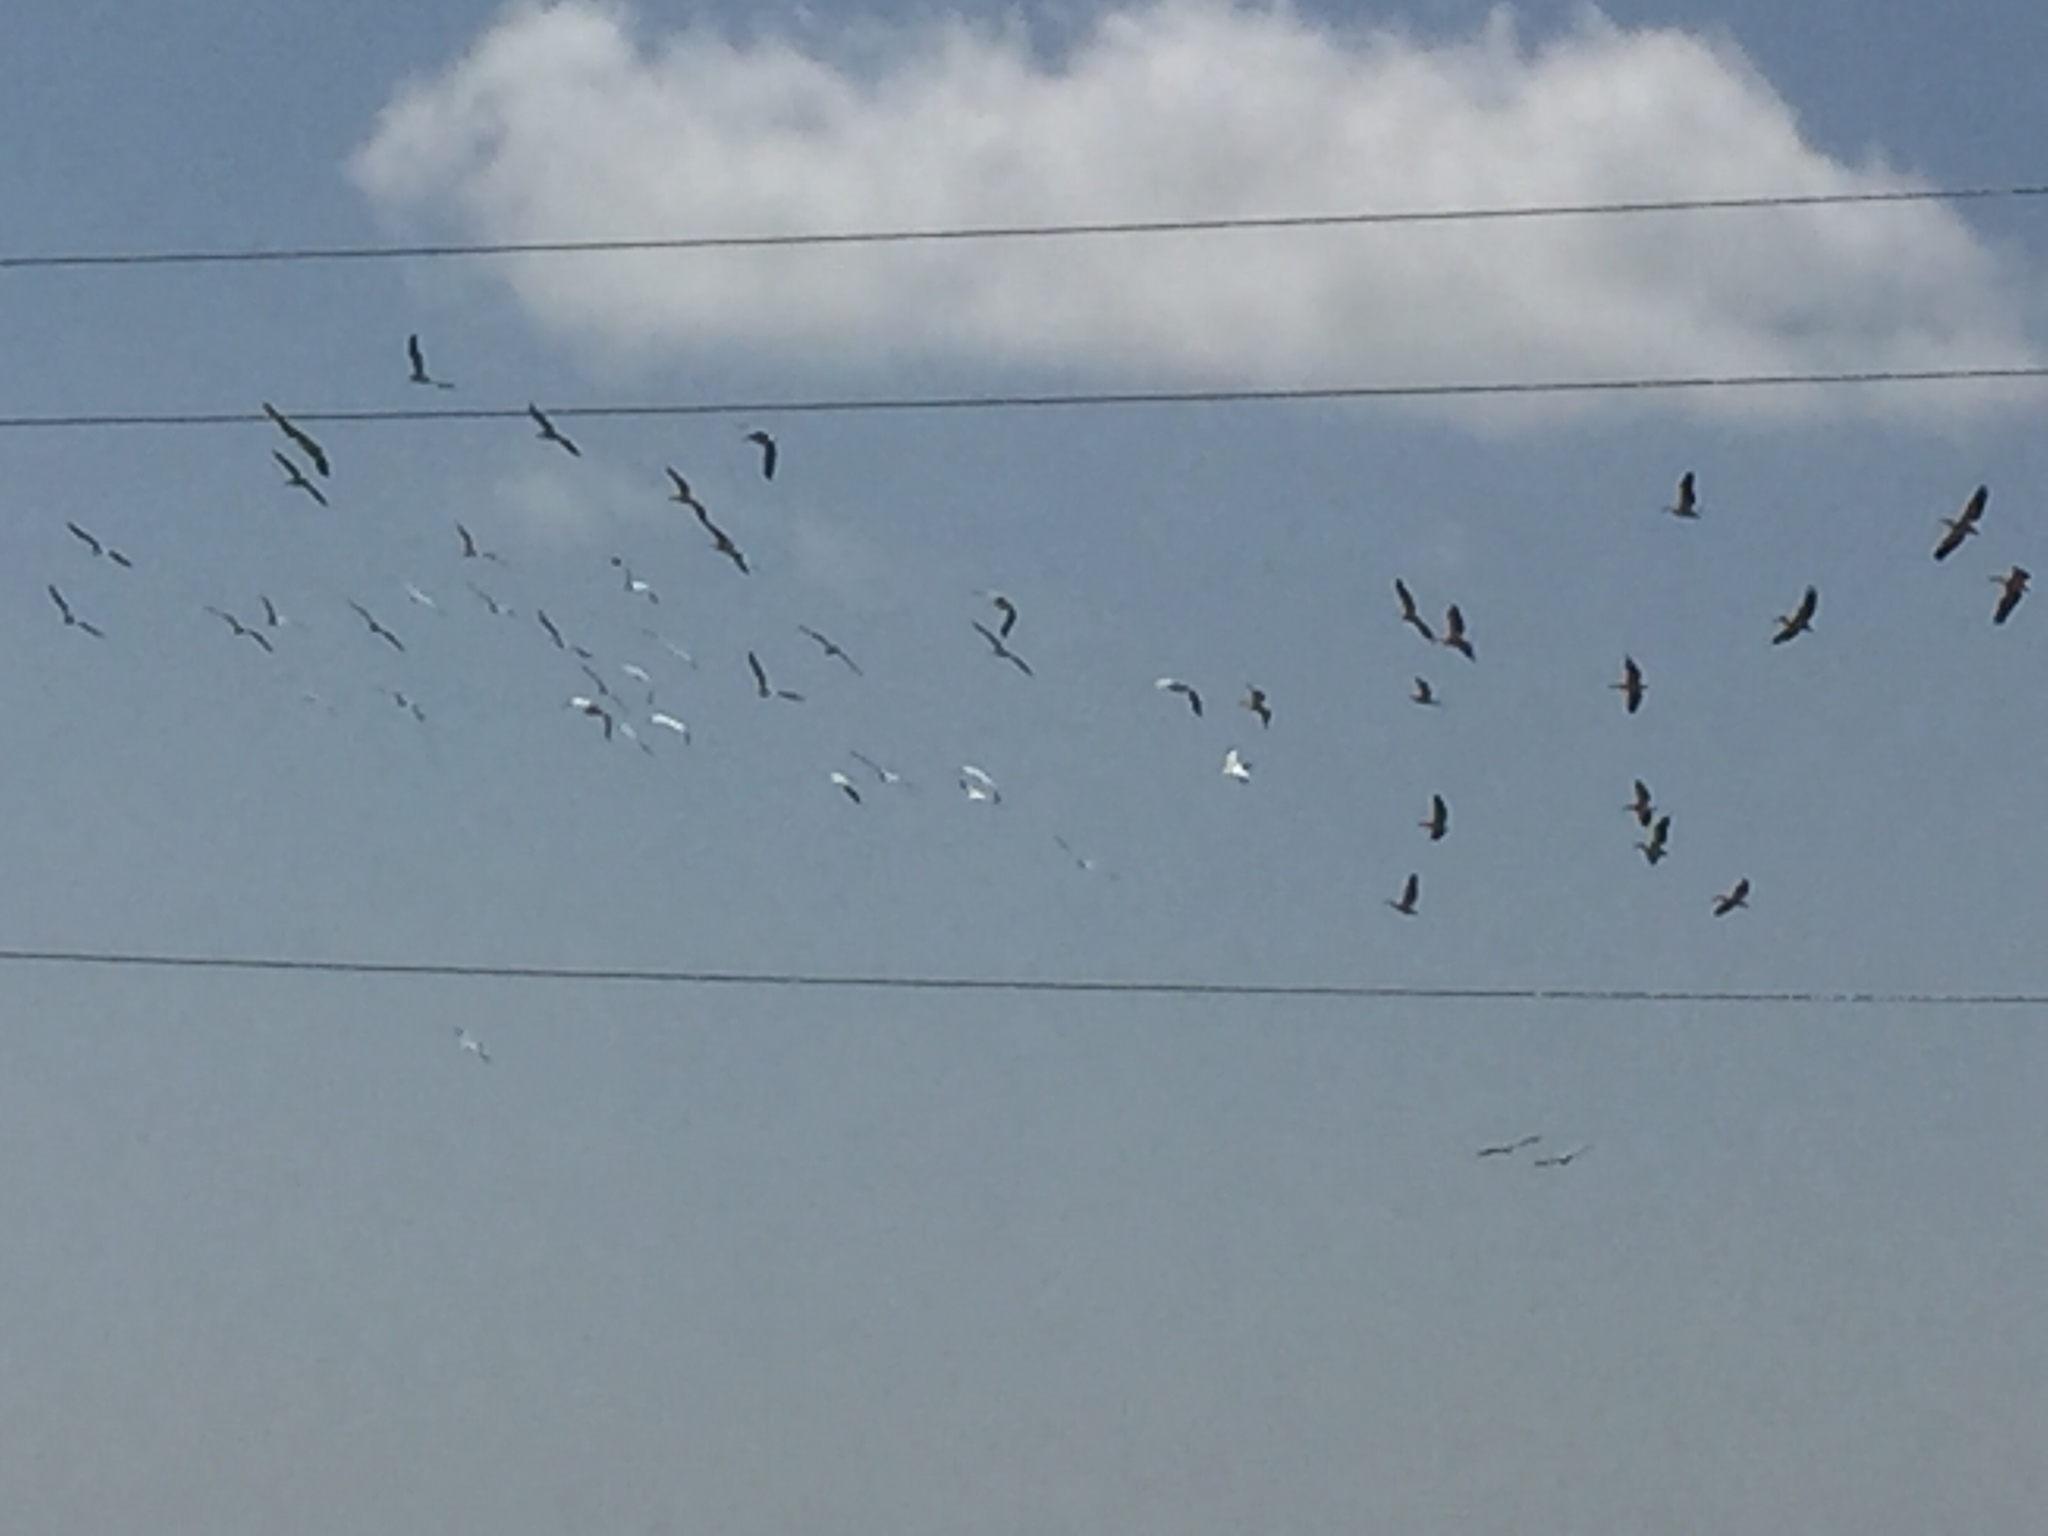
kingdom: Animalia
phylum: Chordata
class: Aves
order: Pelecaniformes
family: Pelecanidae
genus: Pelecanus
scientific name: Pelecanus onocrotalus
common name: Great white pelican
